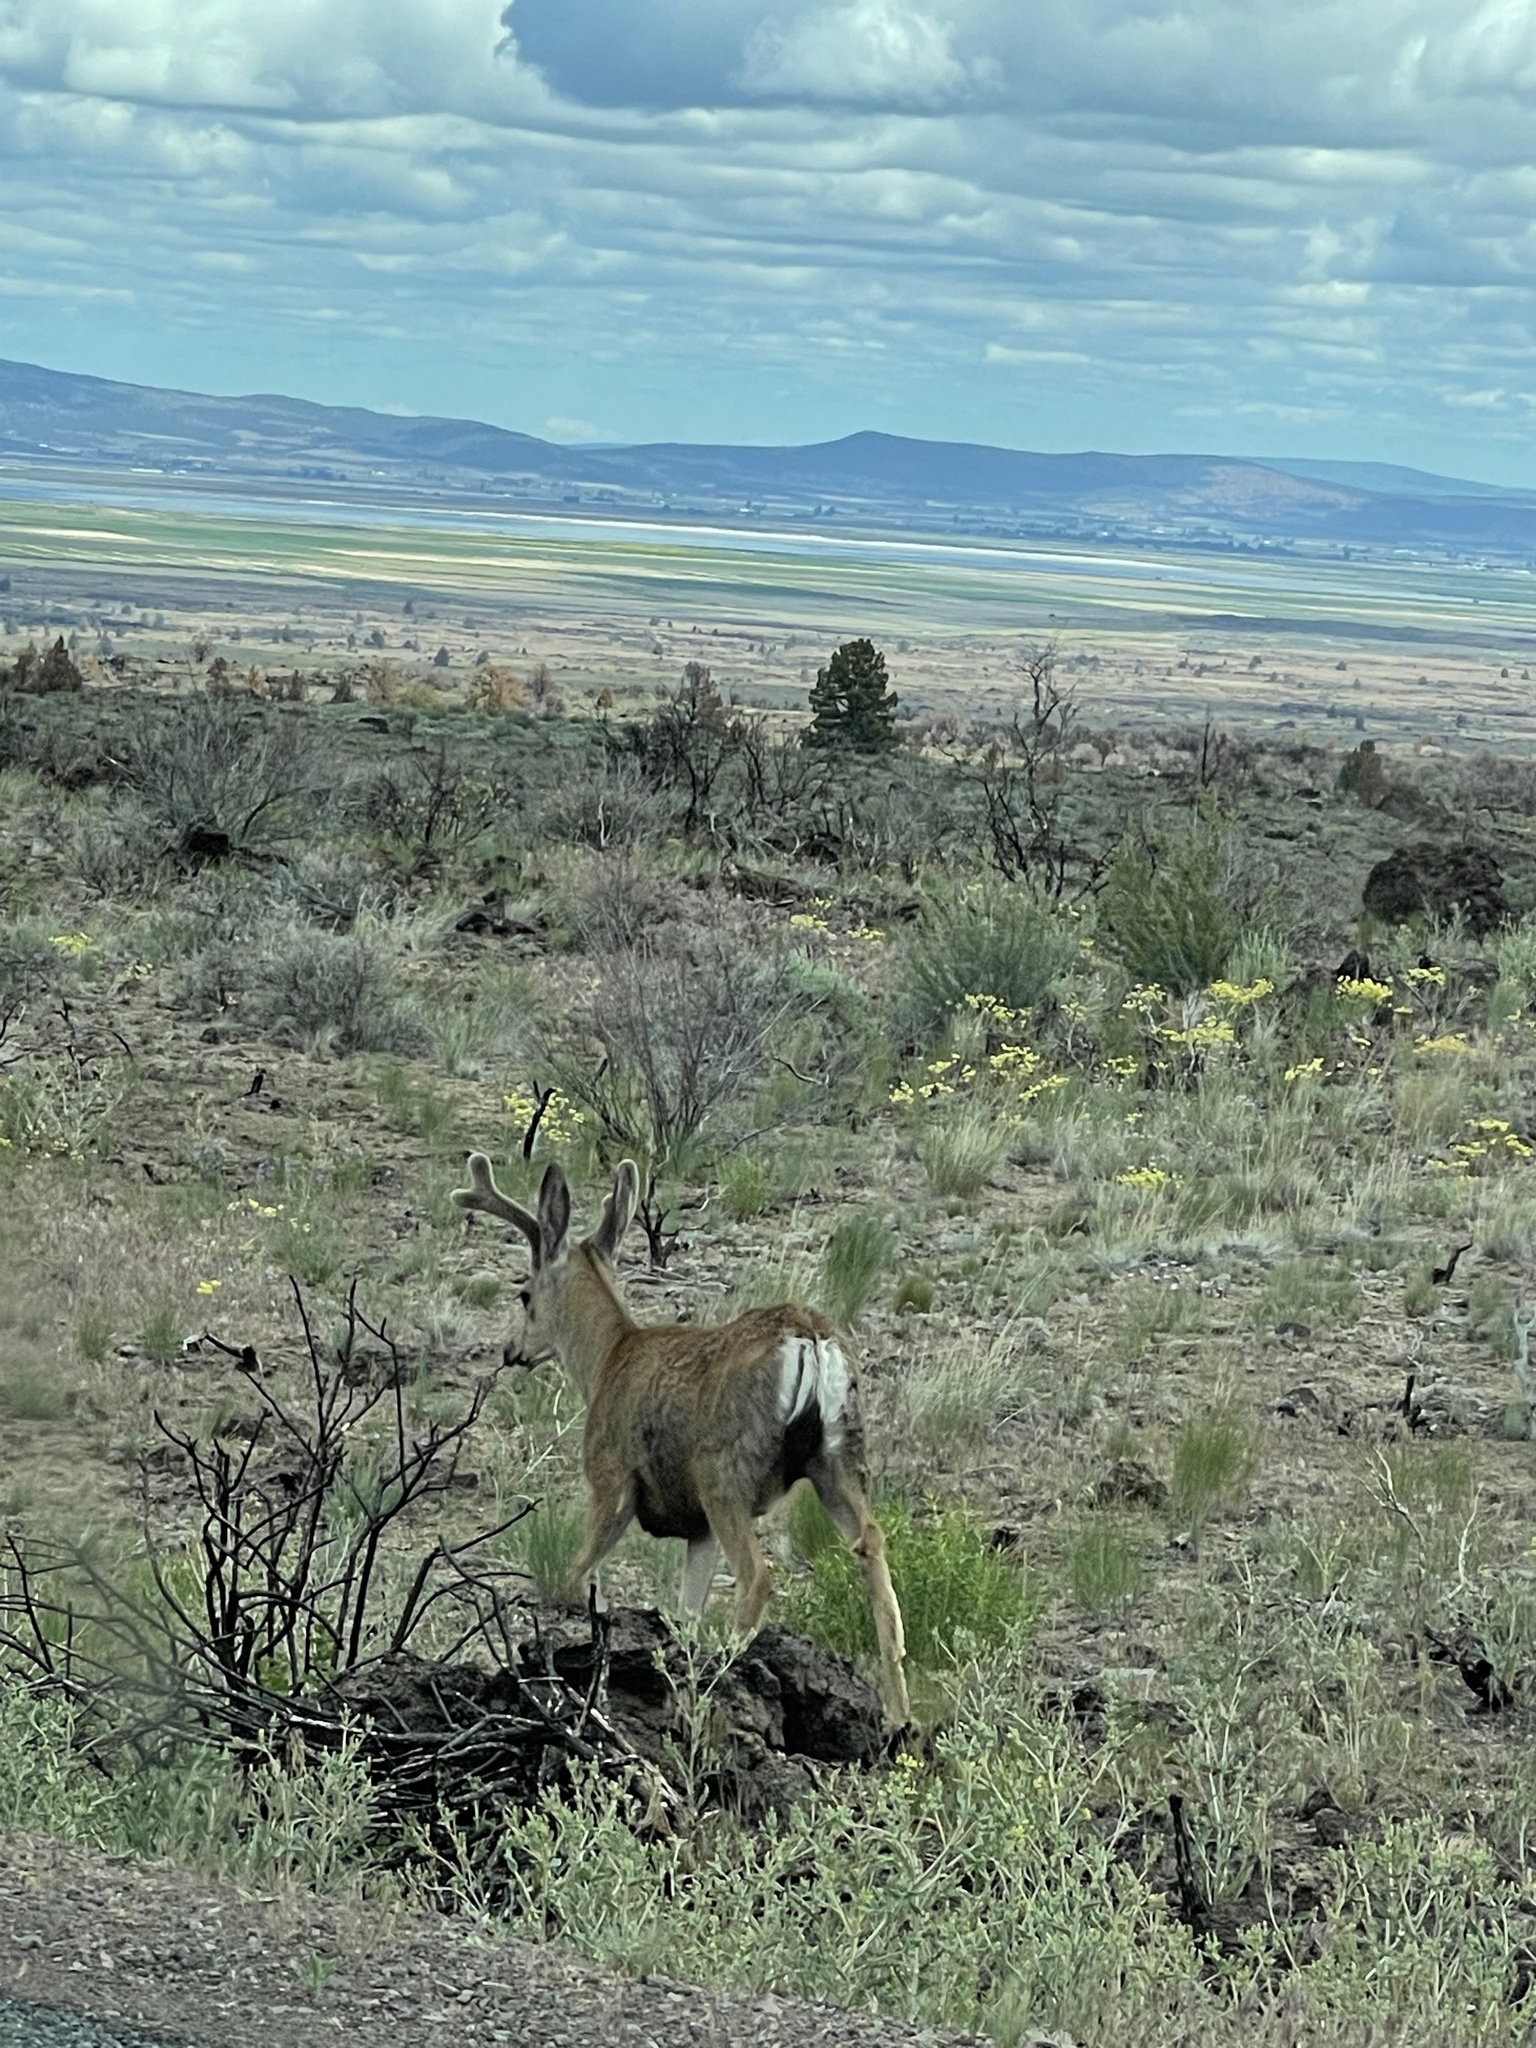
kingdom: Animalia
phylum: Chordata
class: Mammalia
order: Artiodactyla
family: Cervidae
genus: Odocoileus
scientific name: Odocoileus hemionus
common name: Mule deer
